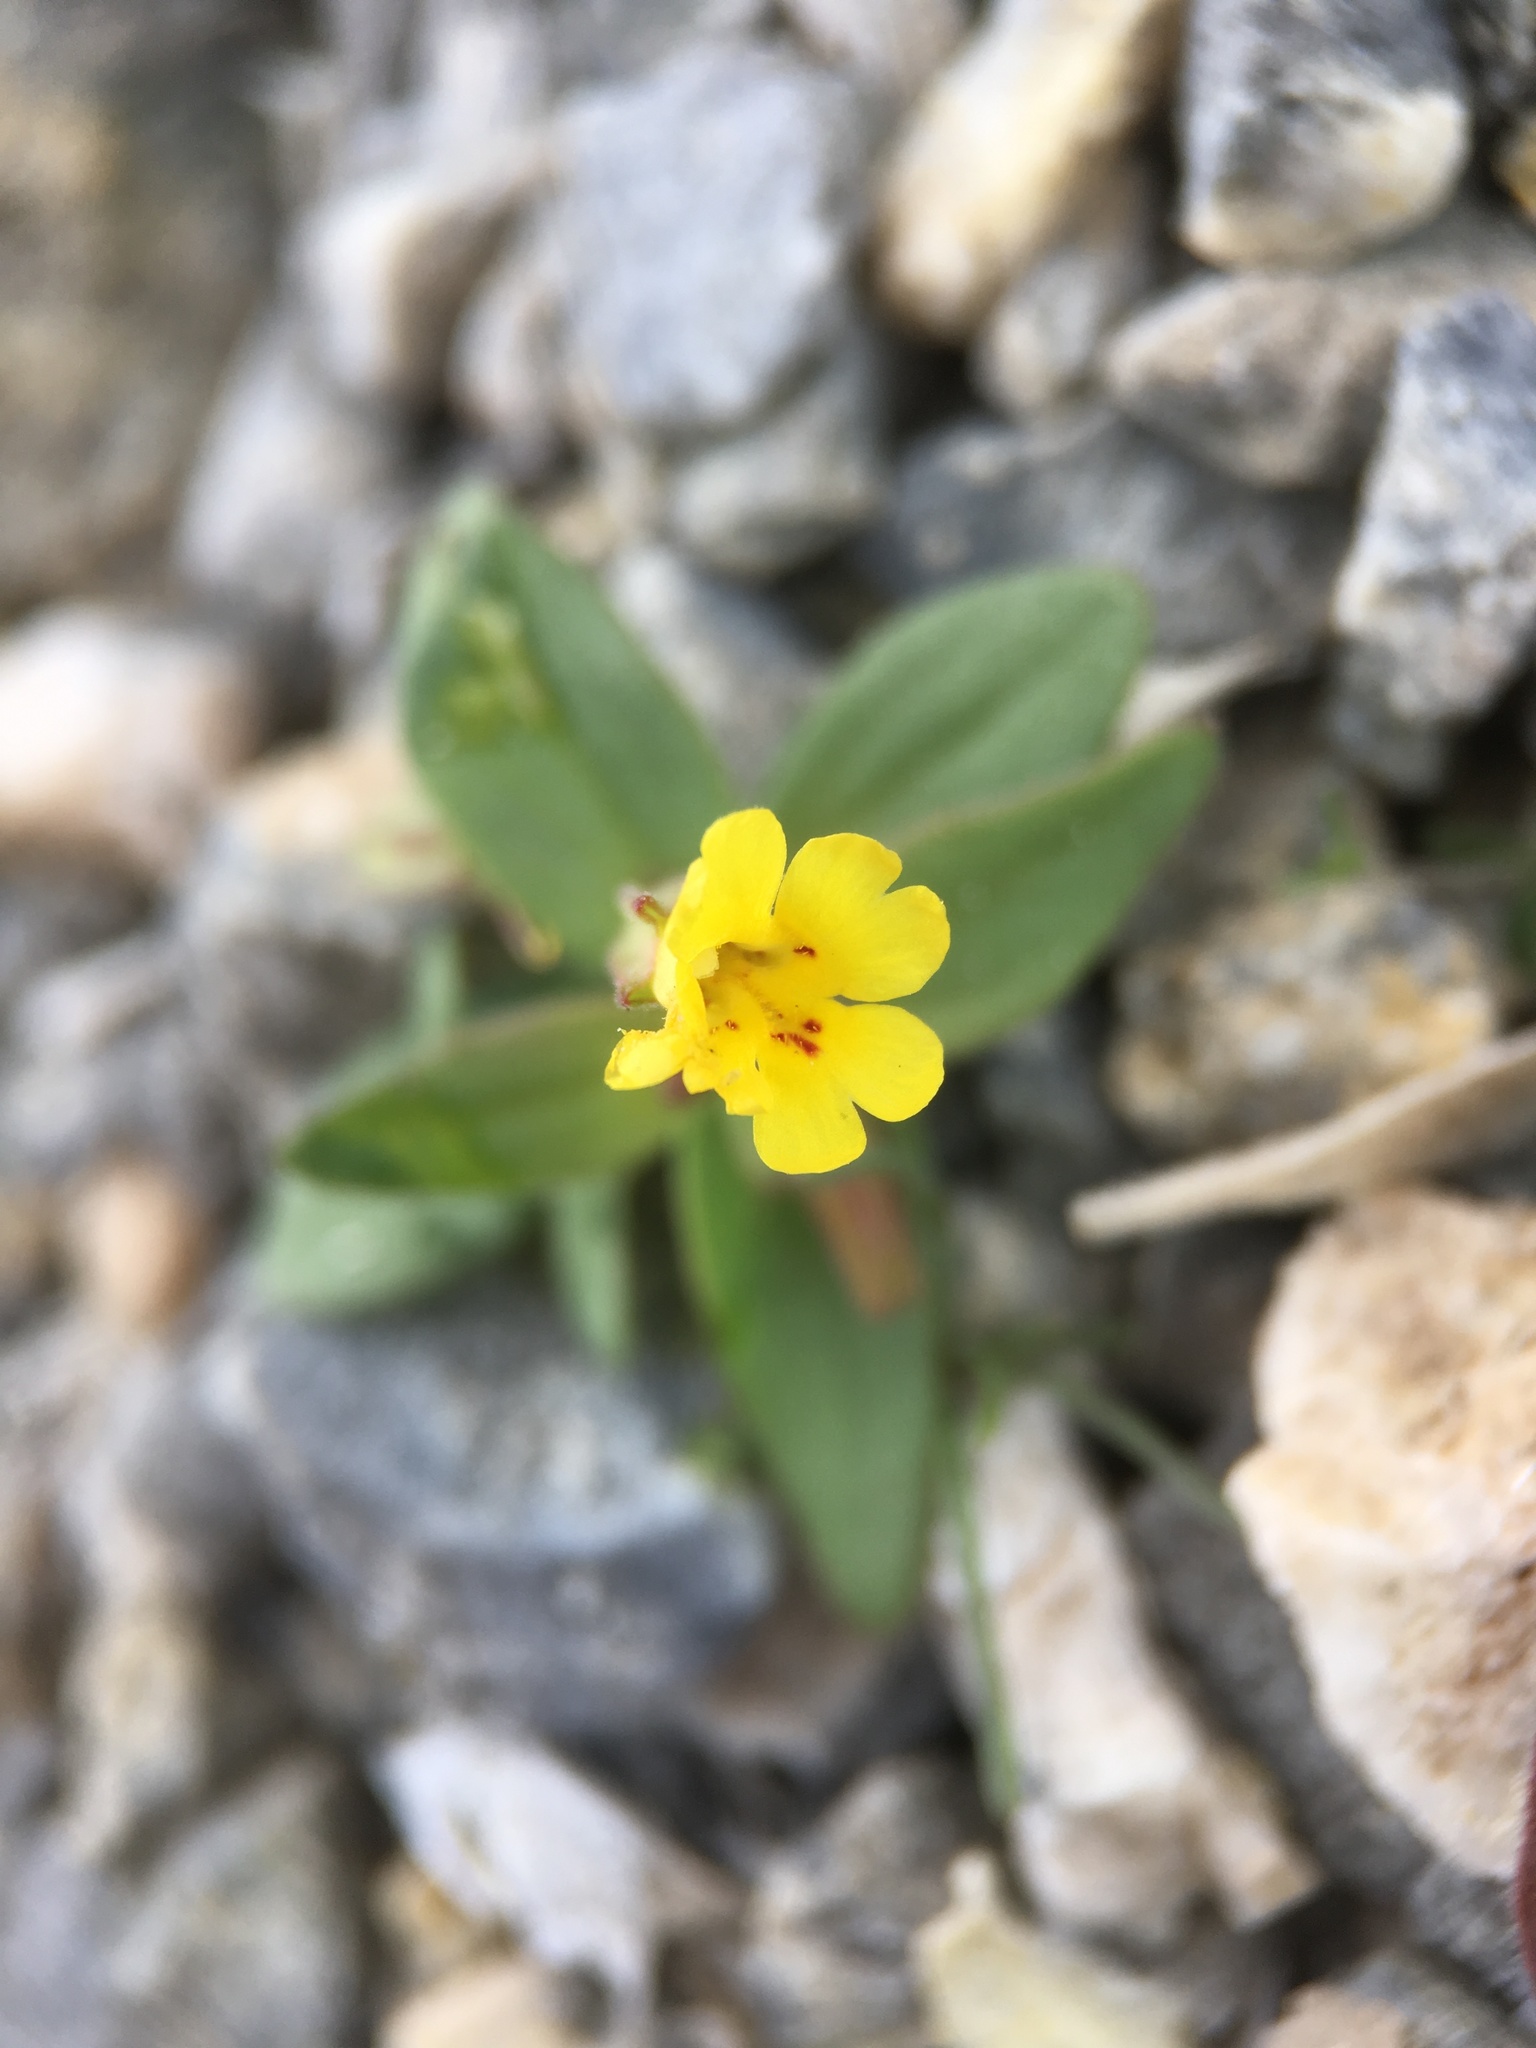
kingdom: Plantae
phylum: Tracheophyta
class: Magnoliopsida
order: Lamiales
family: Phrymaceae
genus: Erythranthe
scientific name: Erythranthe calcicola
